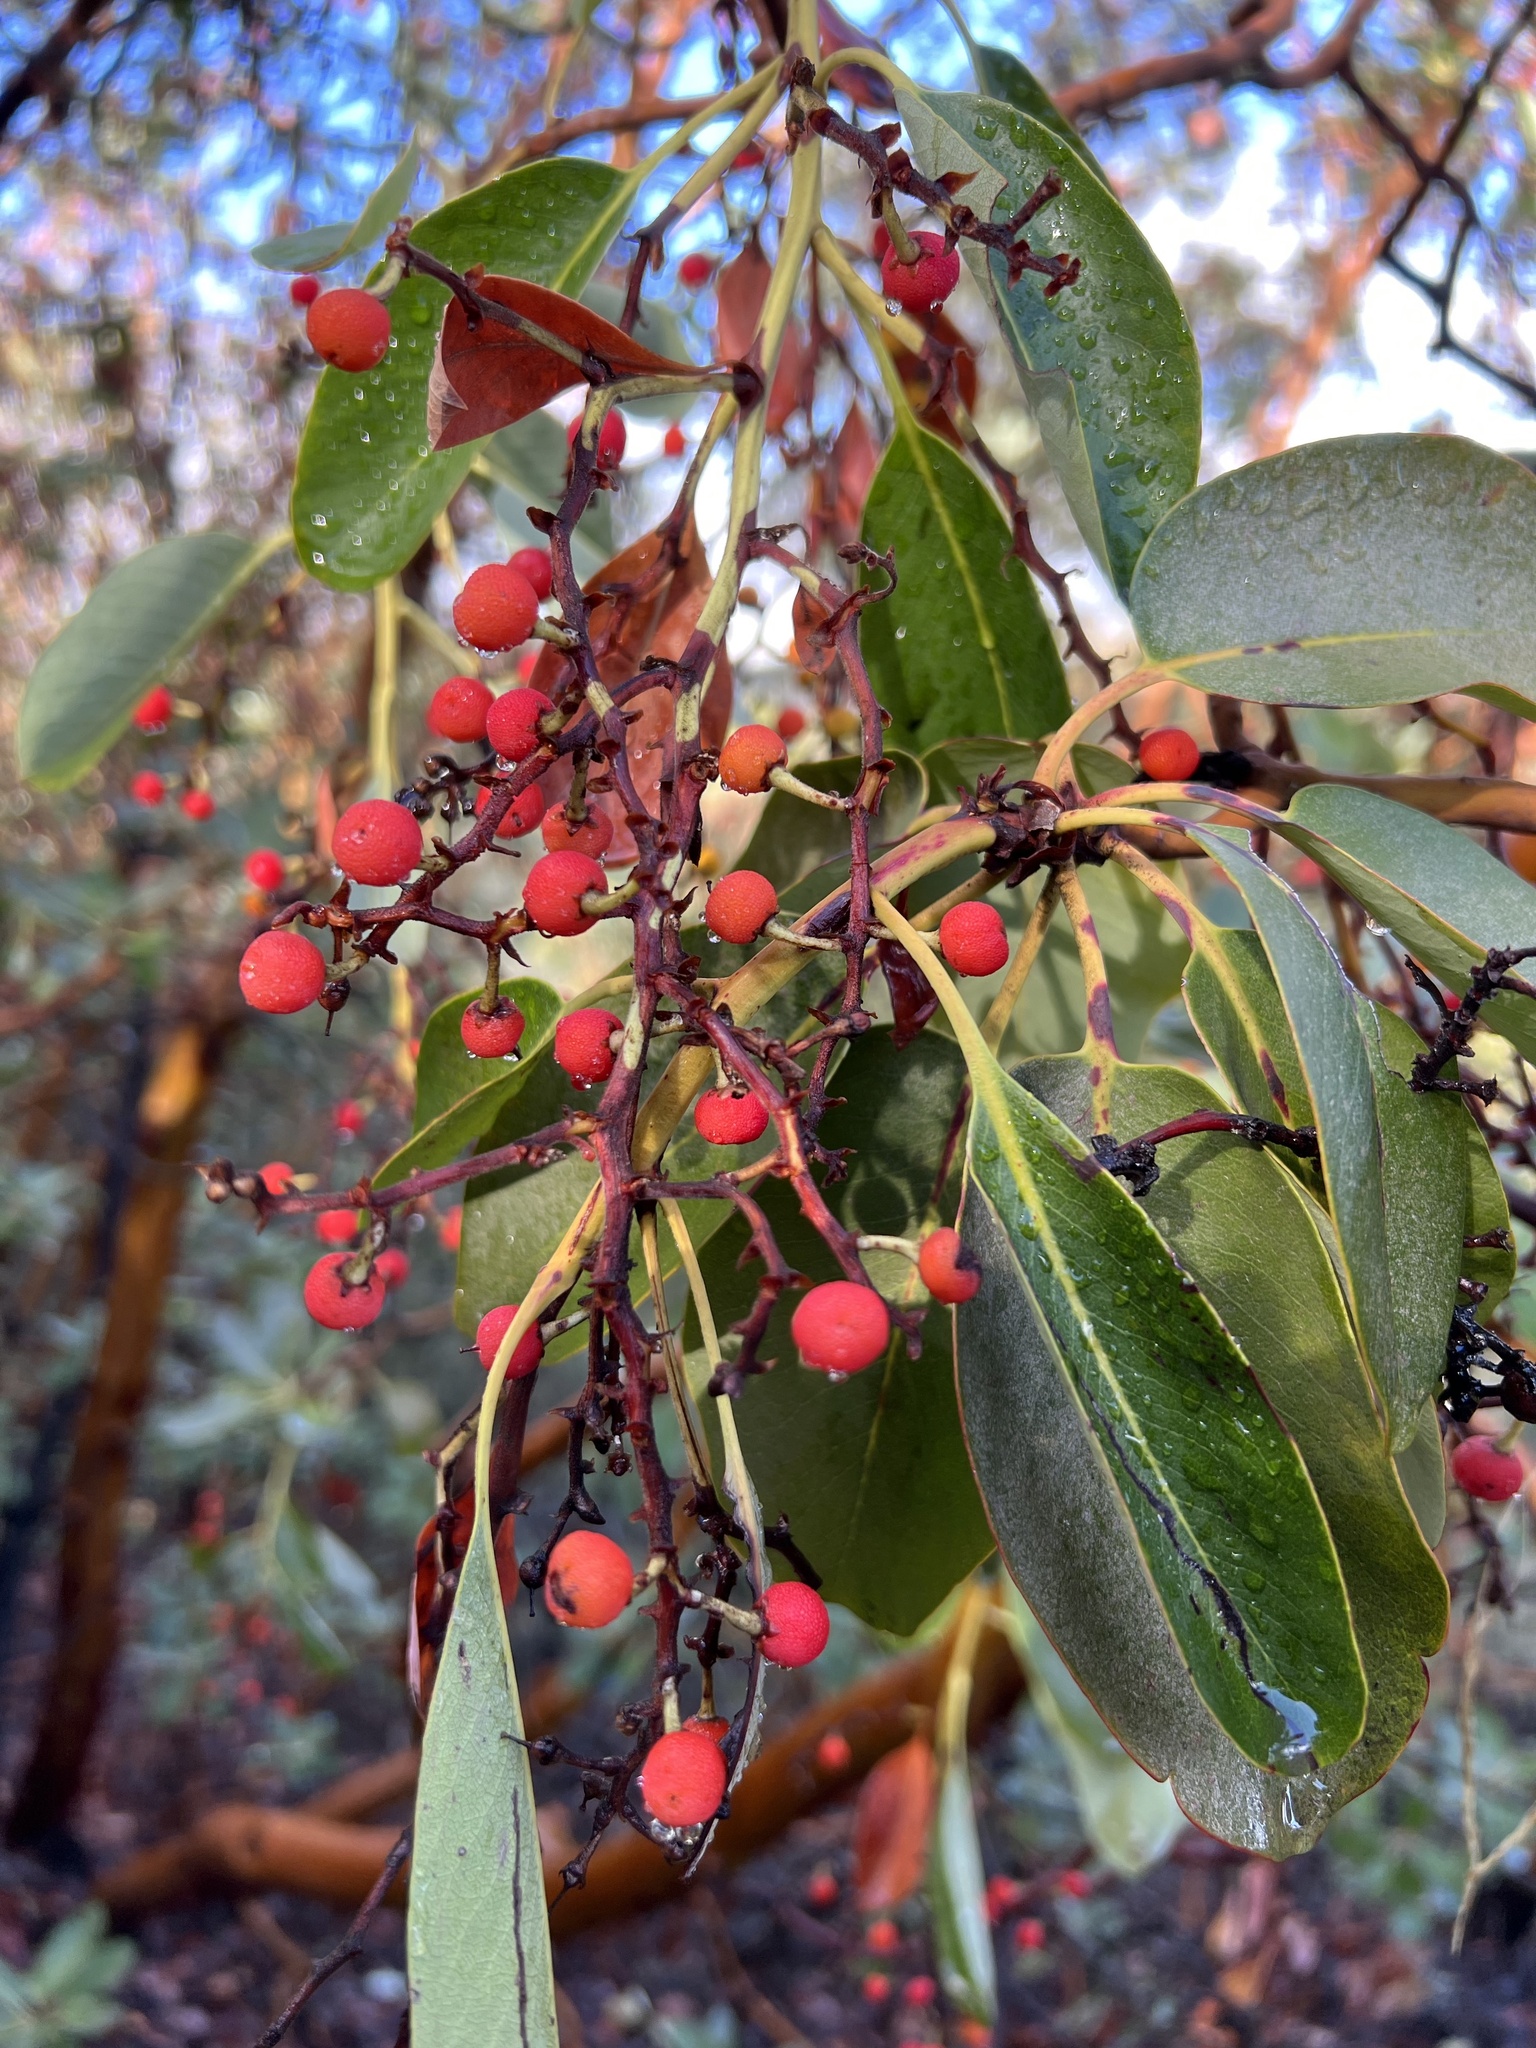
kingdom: Plantae
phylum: Tracheophyta
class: Magnoliopsida
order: Ericales
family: Ericaceae
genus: Arbutus
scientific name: Arbutus menziesii
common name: Pacific madrone
